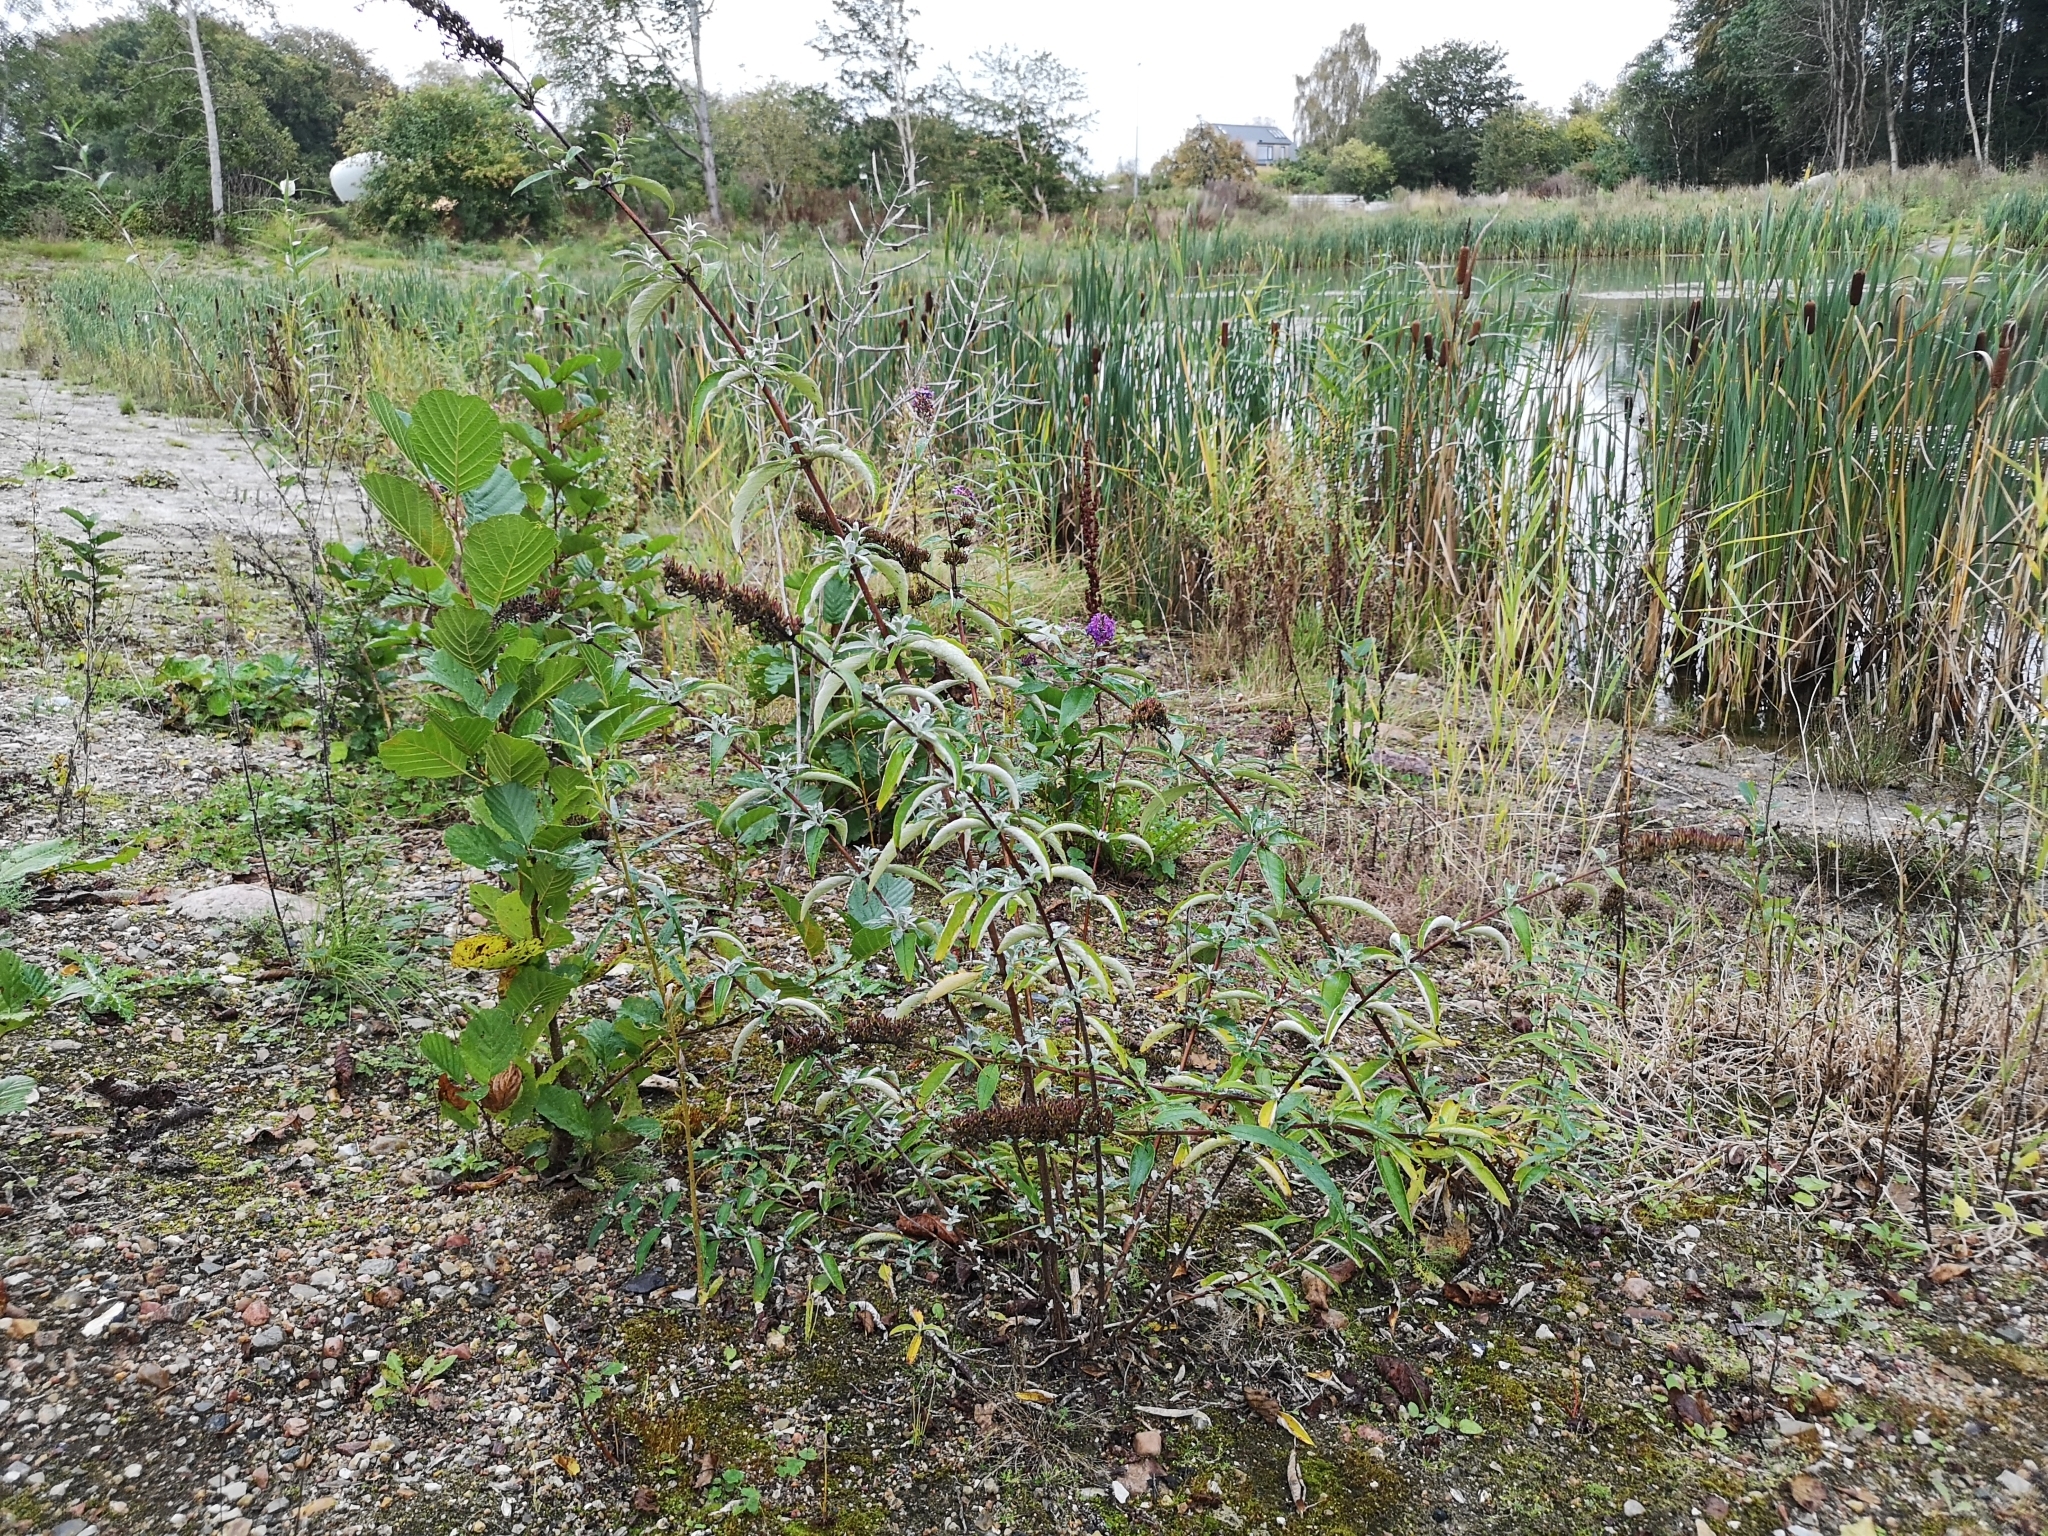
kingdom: Plantae
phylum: Tracheophyta
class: Magnoliopsida
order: Lamiales
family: Scrophulariaceae
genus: Buddleja
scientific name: Buddleja davidii
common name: Butterfly-bush
